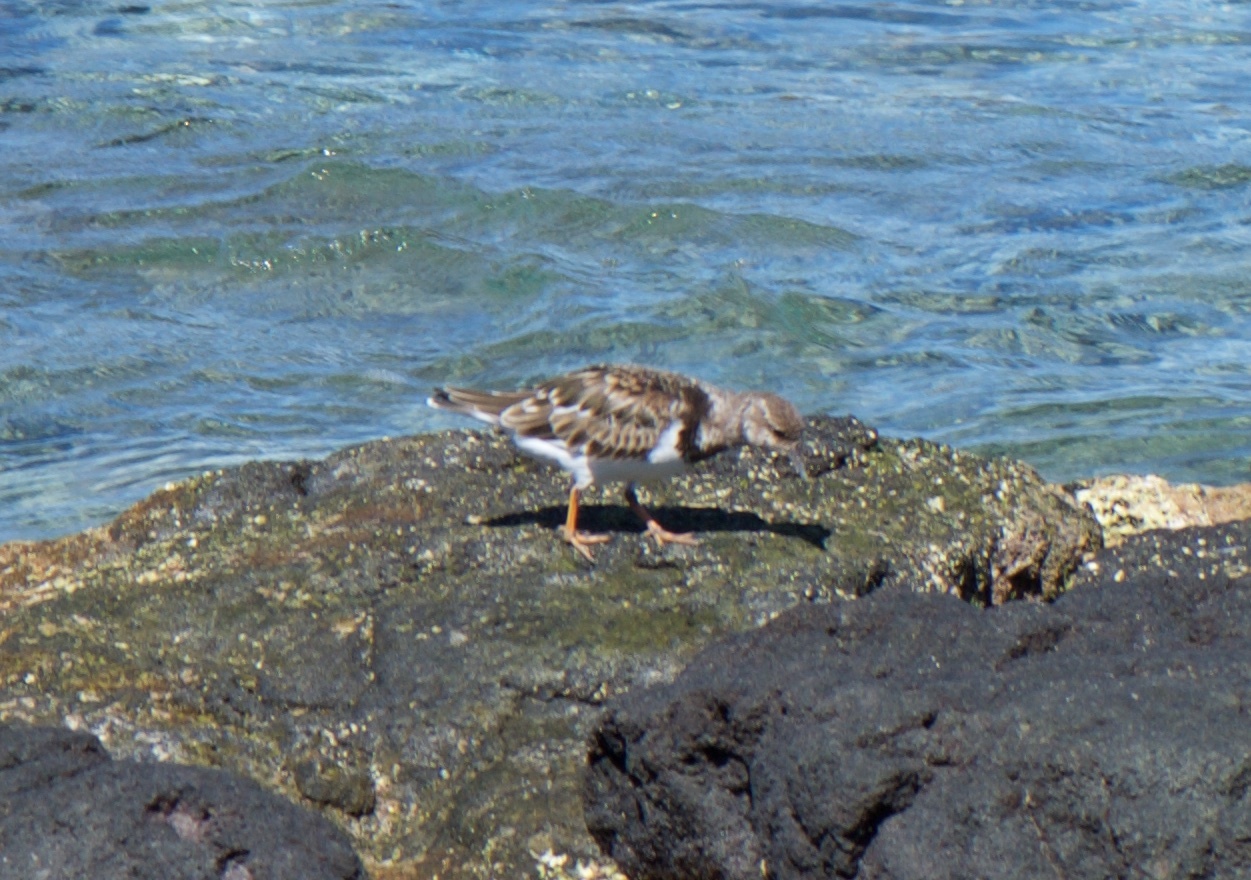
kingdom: Animalia
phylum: Chordata
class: Aves
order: Charadriiformes
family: Scolopacidae
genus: Arenaria
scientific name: Arenaria interpres
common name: Ruddy turnstone
